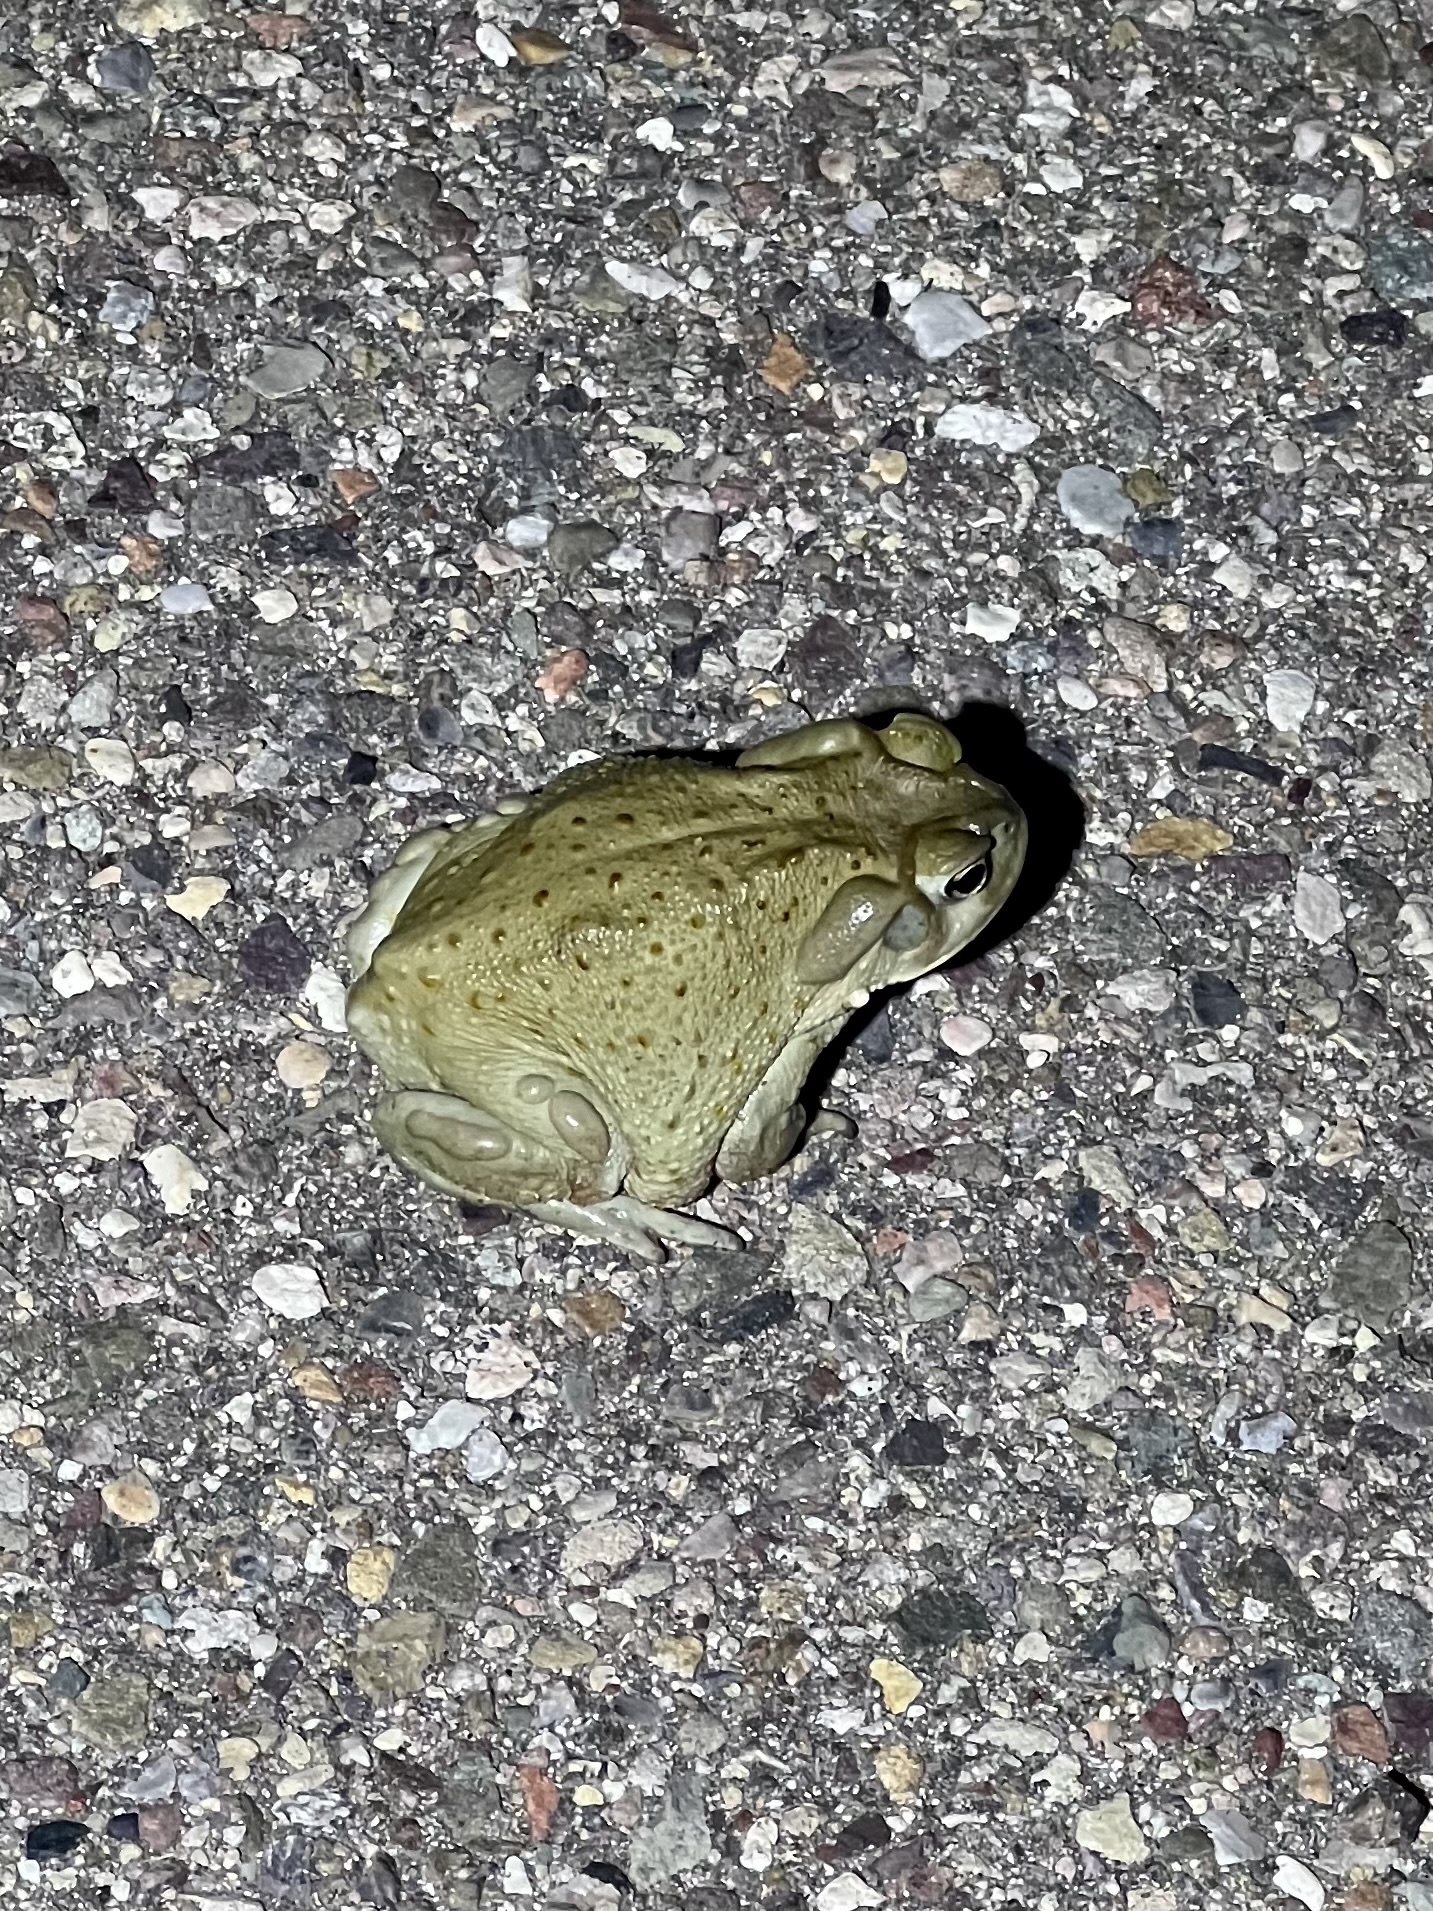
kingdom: Animalia
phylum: Chordata
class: Amphibia
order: Anura
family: Bufonidae
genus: Incilius
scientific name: Incilius alvarius
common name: Sonoran desert toad
